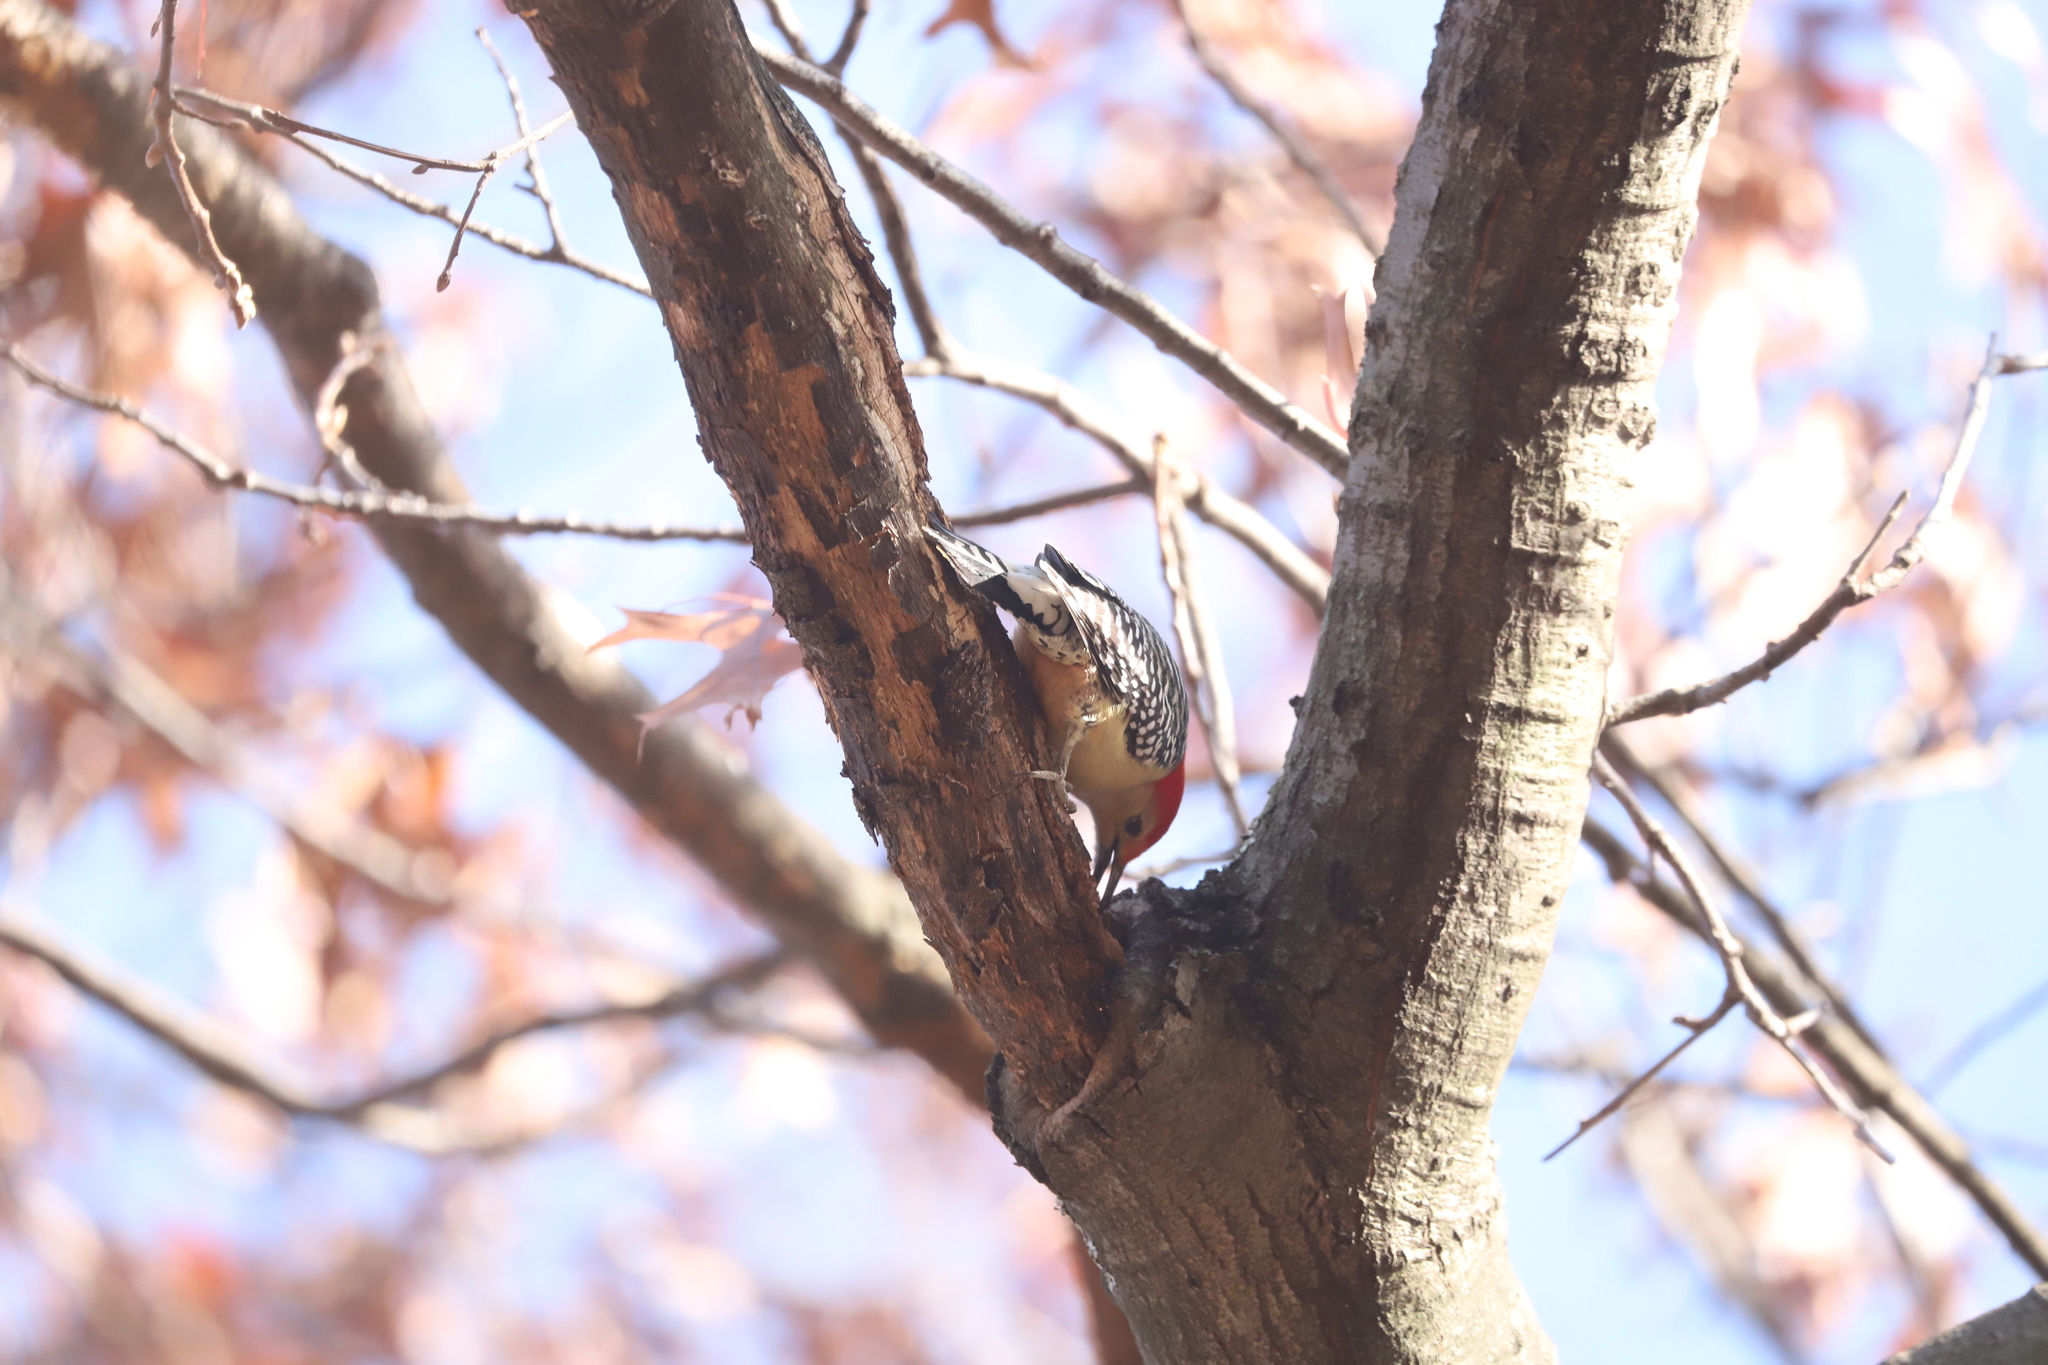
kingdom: Animalia
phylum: Chordata
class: Aves
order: Piciformes
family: Picidae
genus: Melanerpes
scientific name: Melanerpes carolinus
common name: Red-bellied woodpecker
